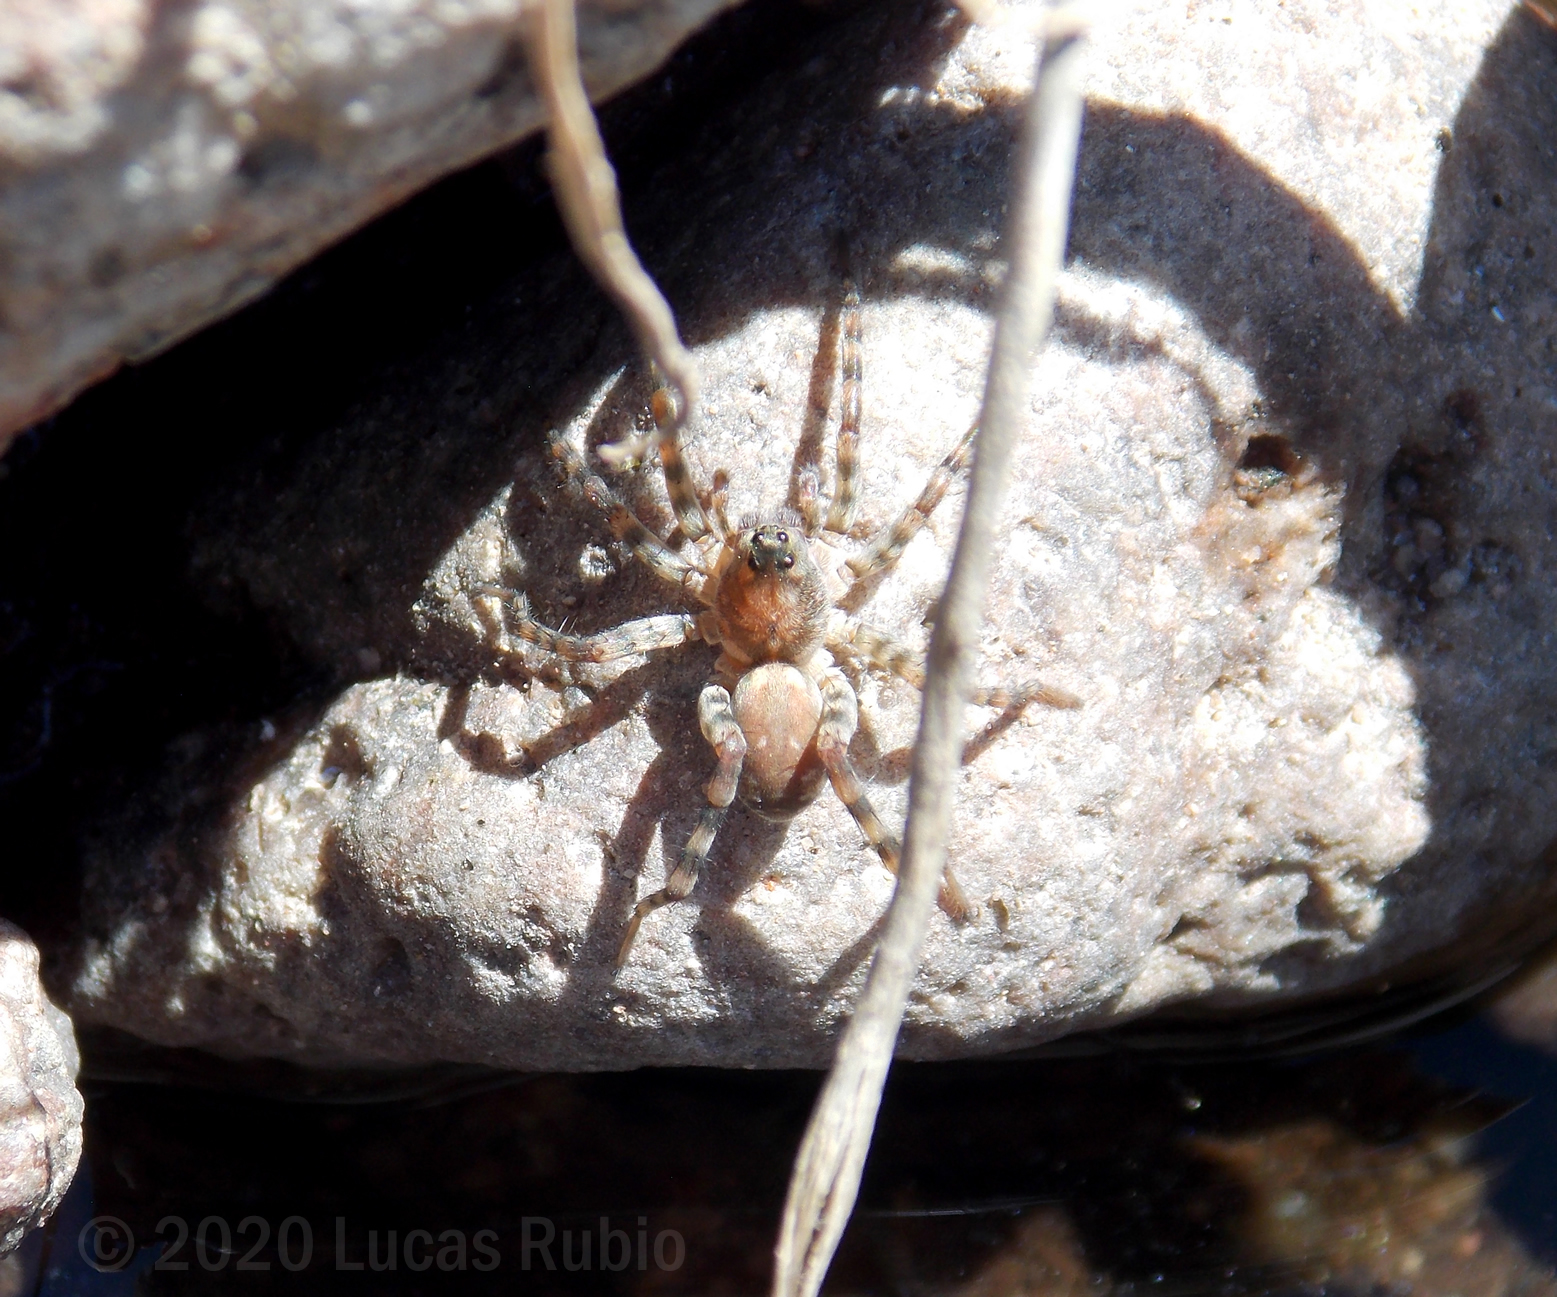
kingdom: Animalia
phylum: Arthropoda
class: Arachnida
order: Araneae
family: Lycosidae
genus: Allocosa
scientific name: Allocosa senex
